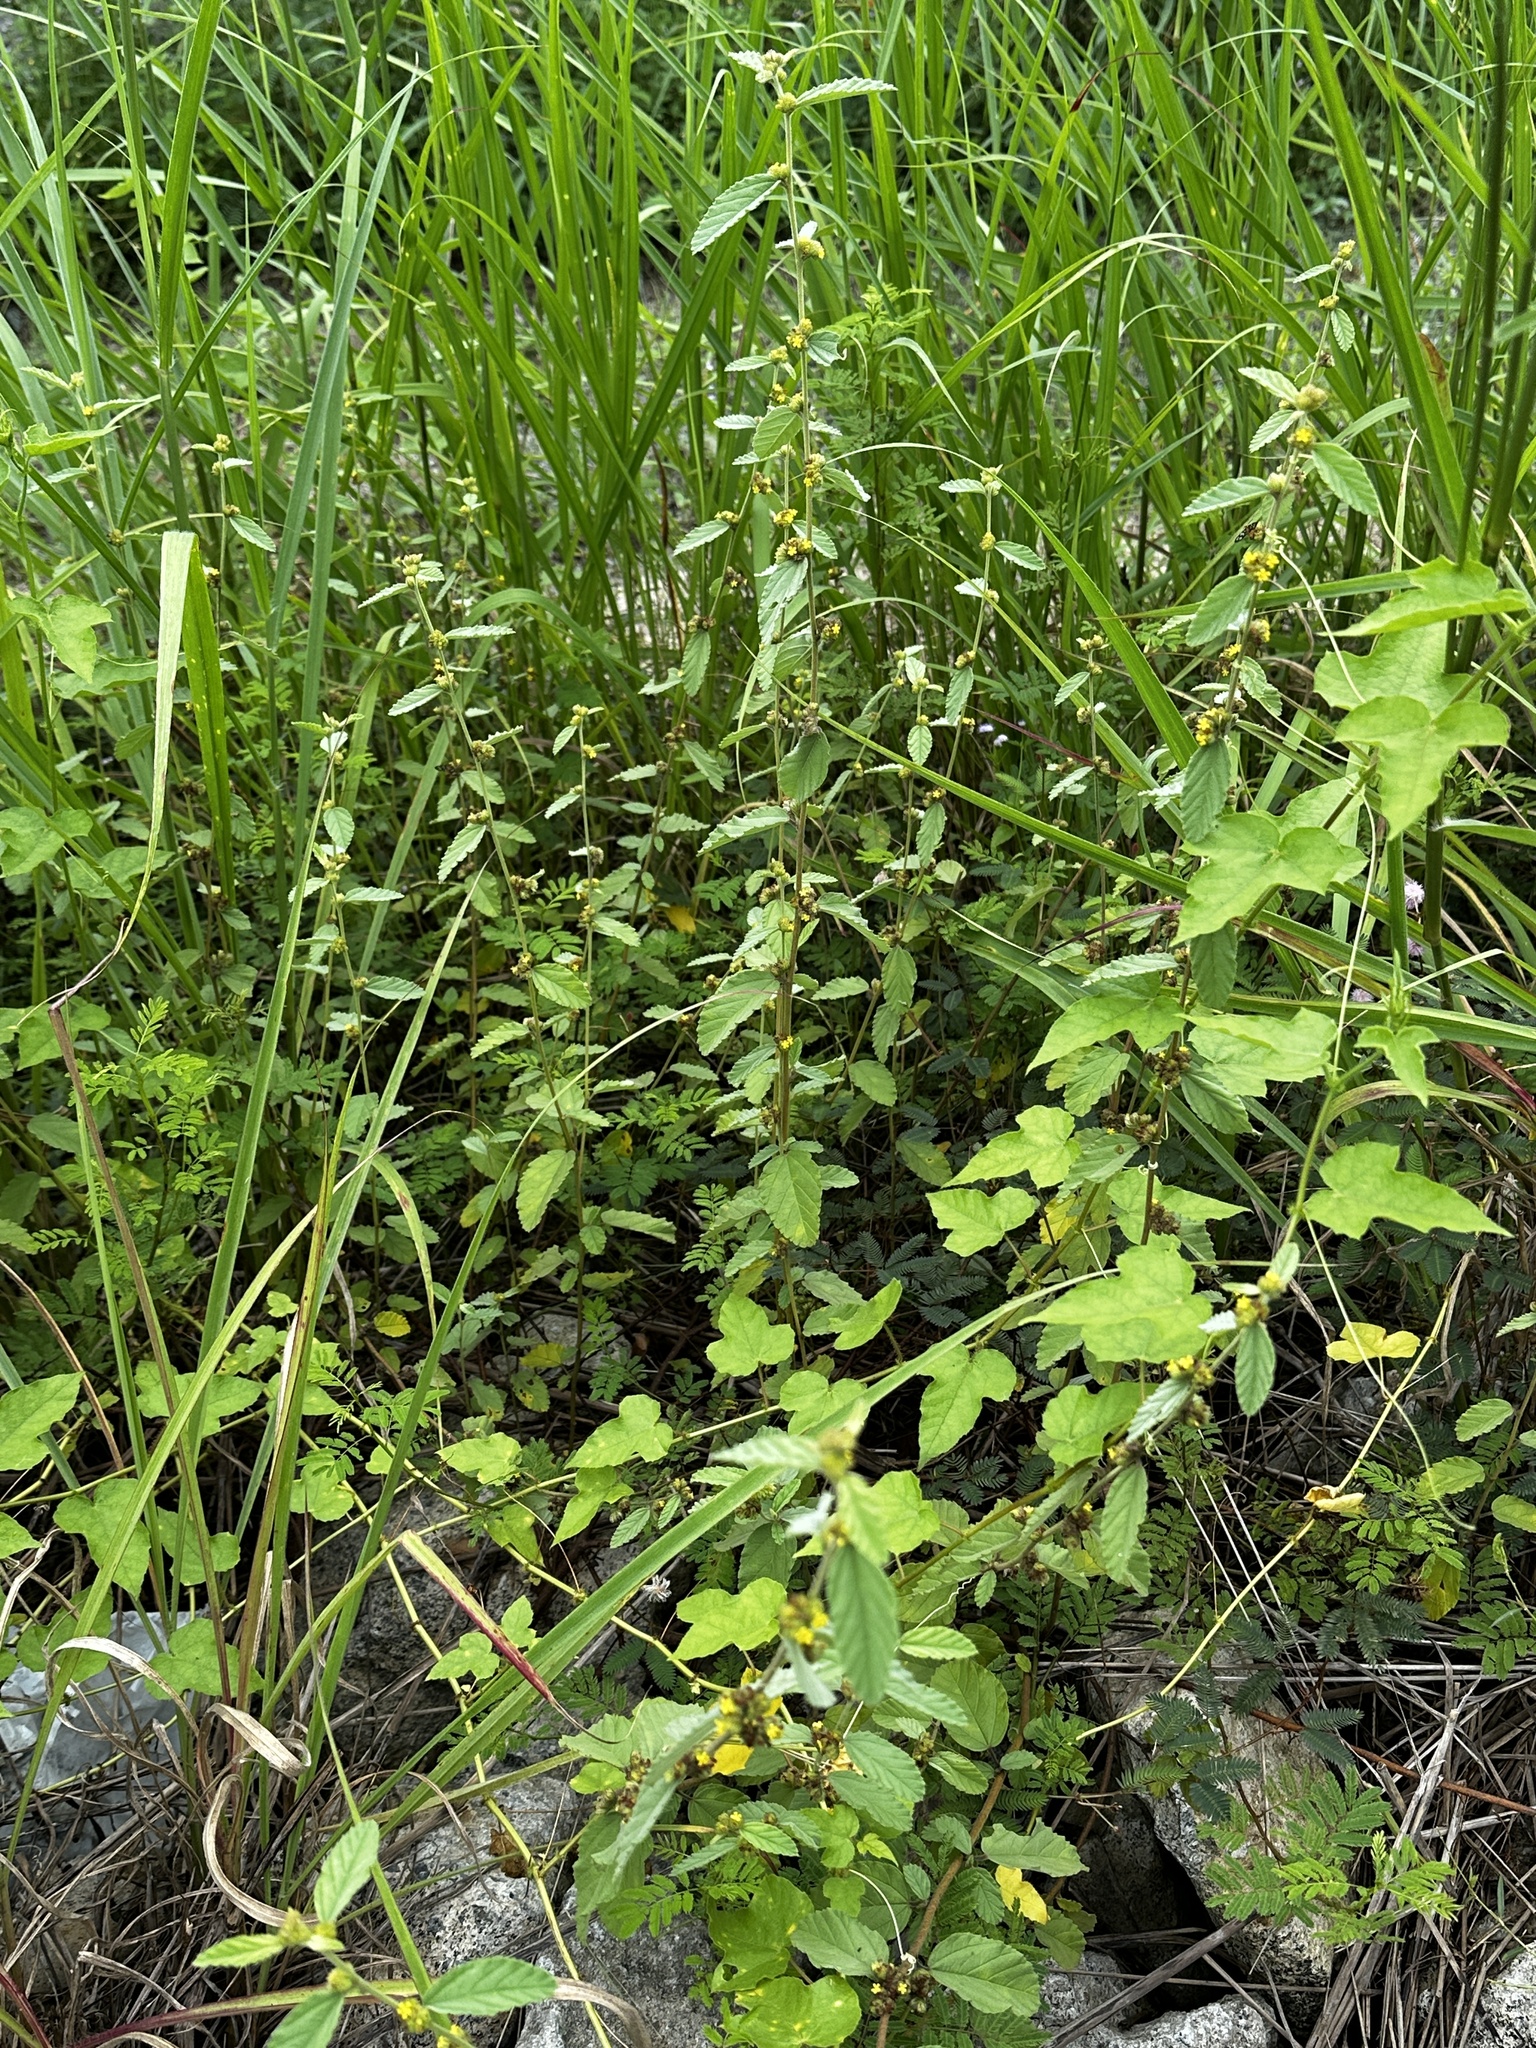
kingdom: Plantae
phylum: Tracheophyta
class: Magnoliopsida
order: Malvales
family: Malvaceae
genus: Waltheria
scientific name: Waltheria indica
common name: Leather-coat
